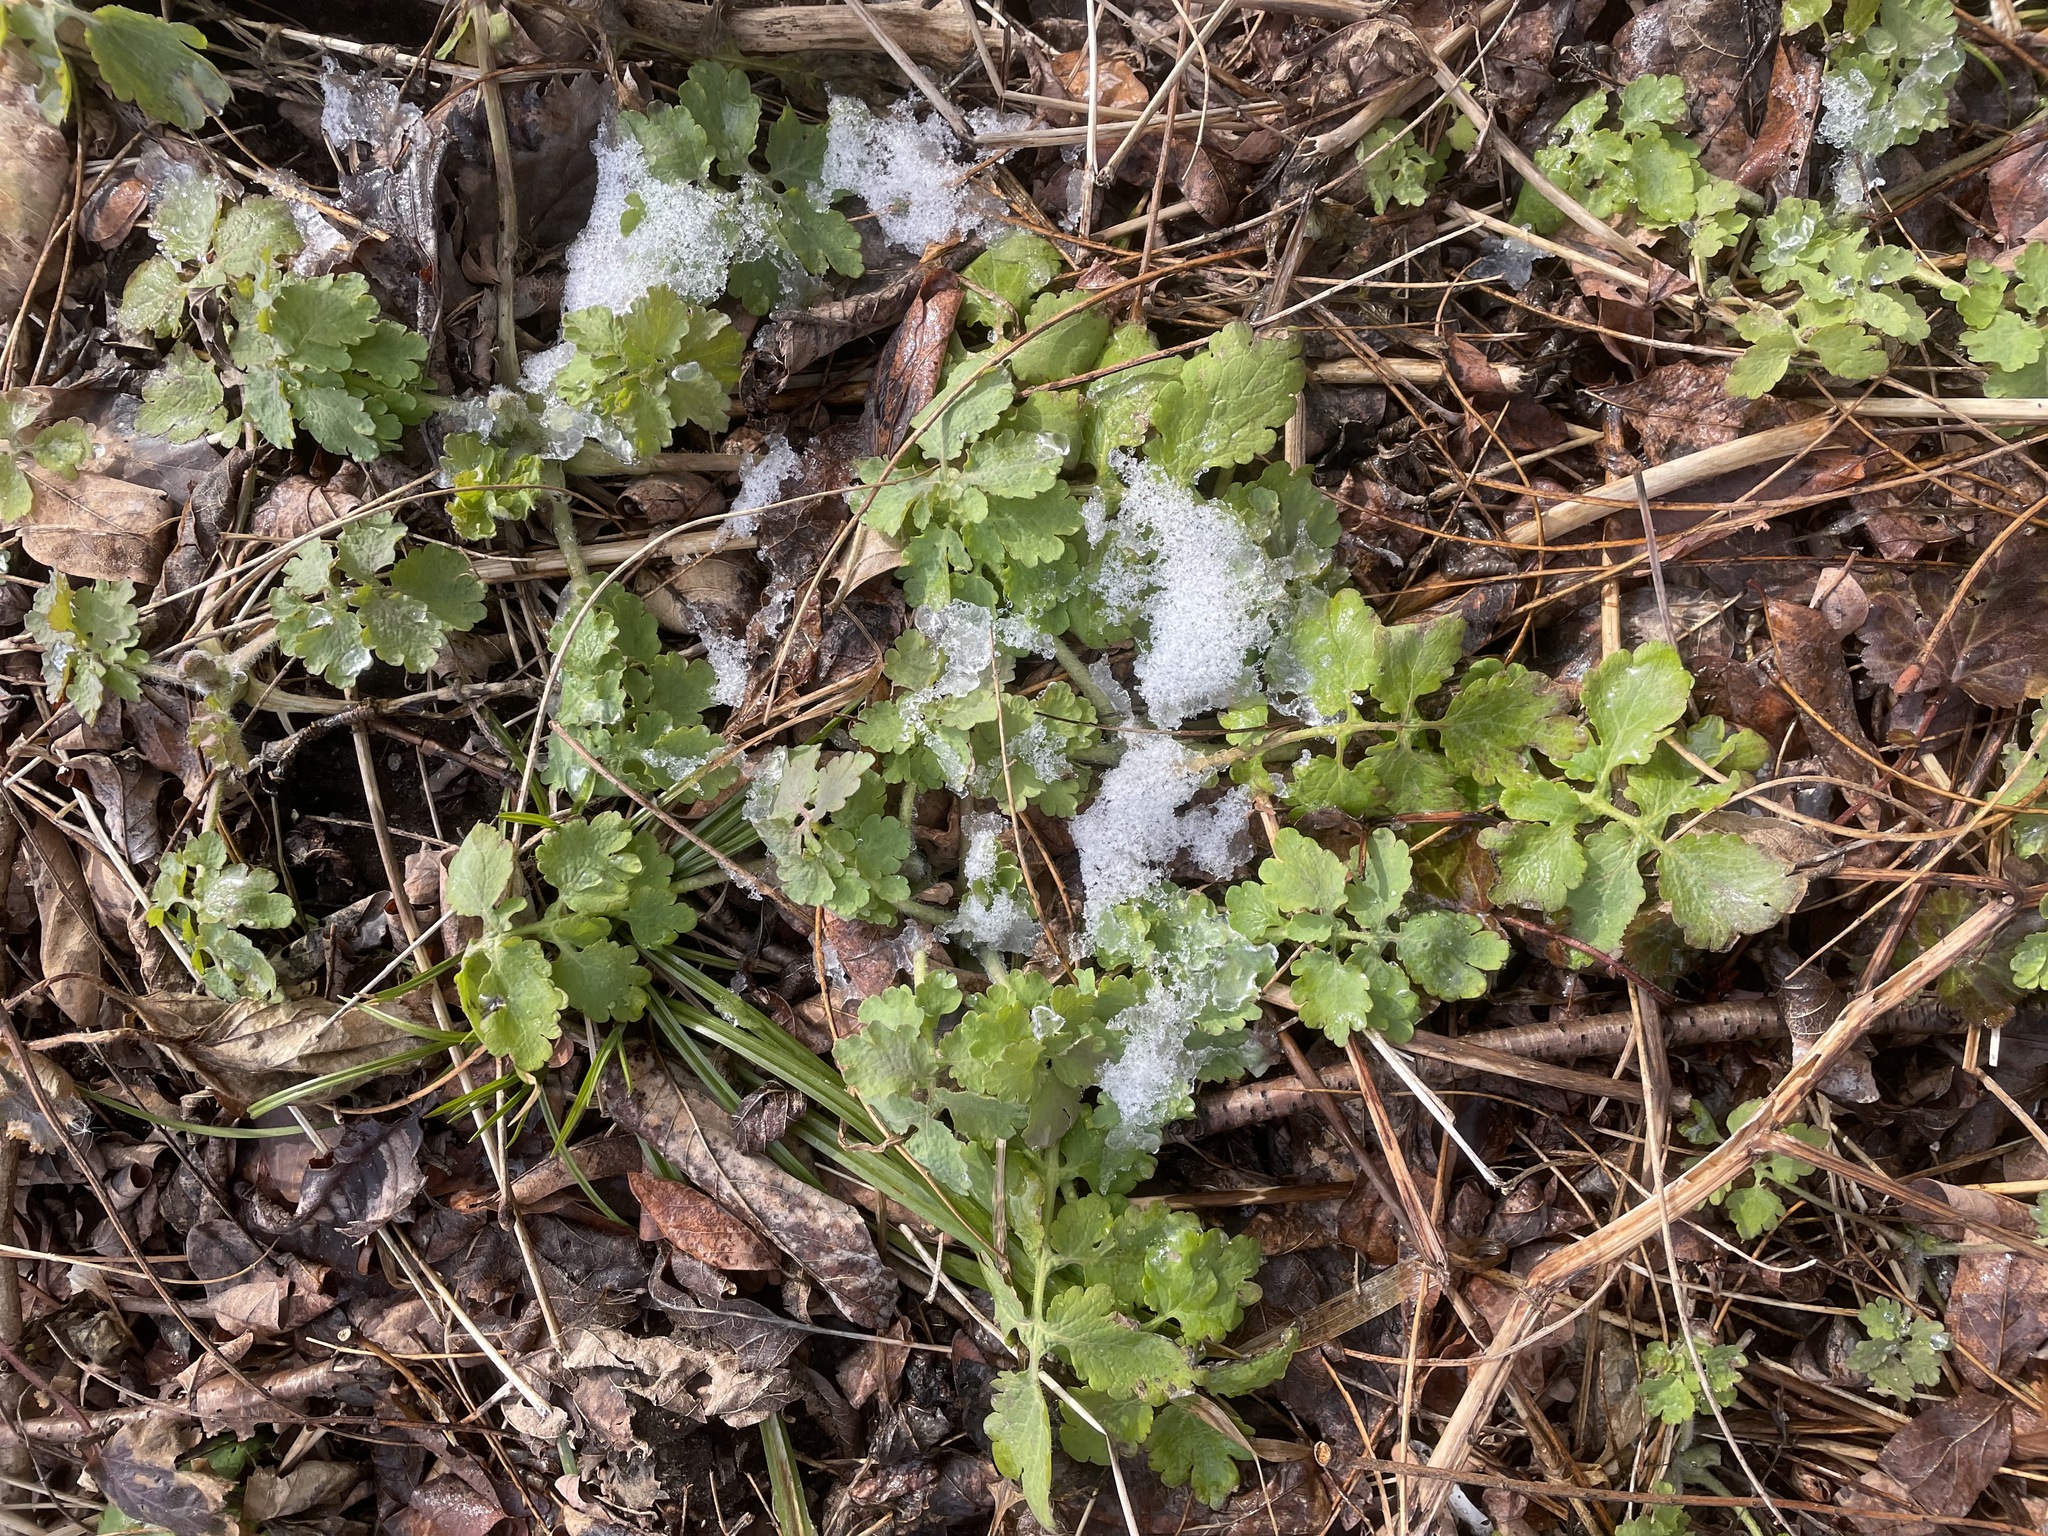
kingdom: Plantae
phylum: Tracheophyta
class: Magnoliopsida
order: Ranunculales
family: Papaveraceae
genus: Chelidonium
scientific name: Chelidonium majus
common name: Greater celandine
